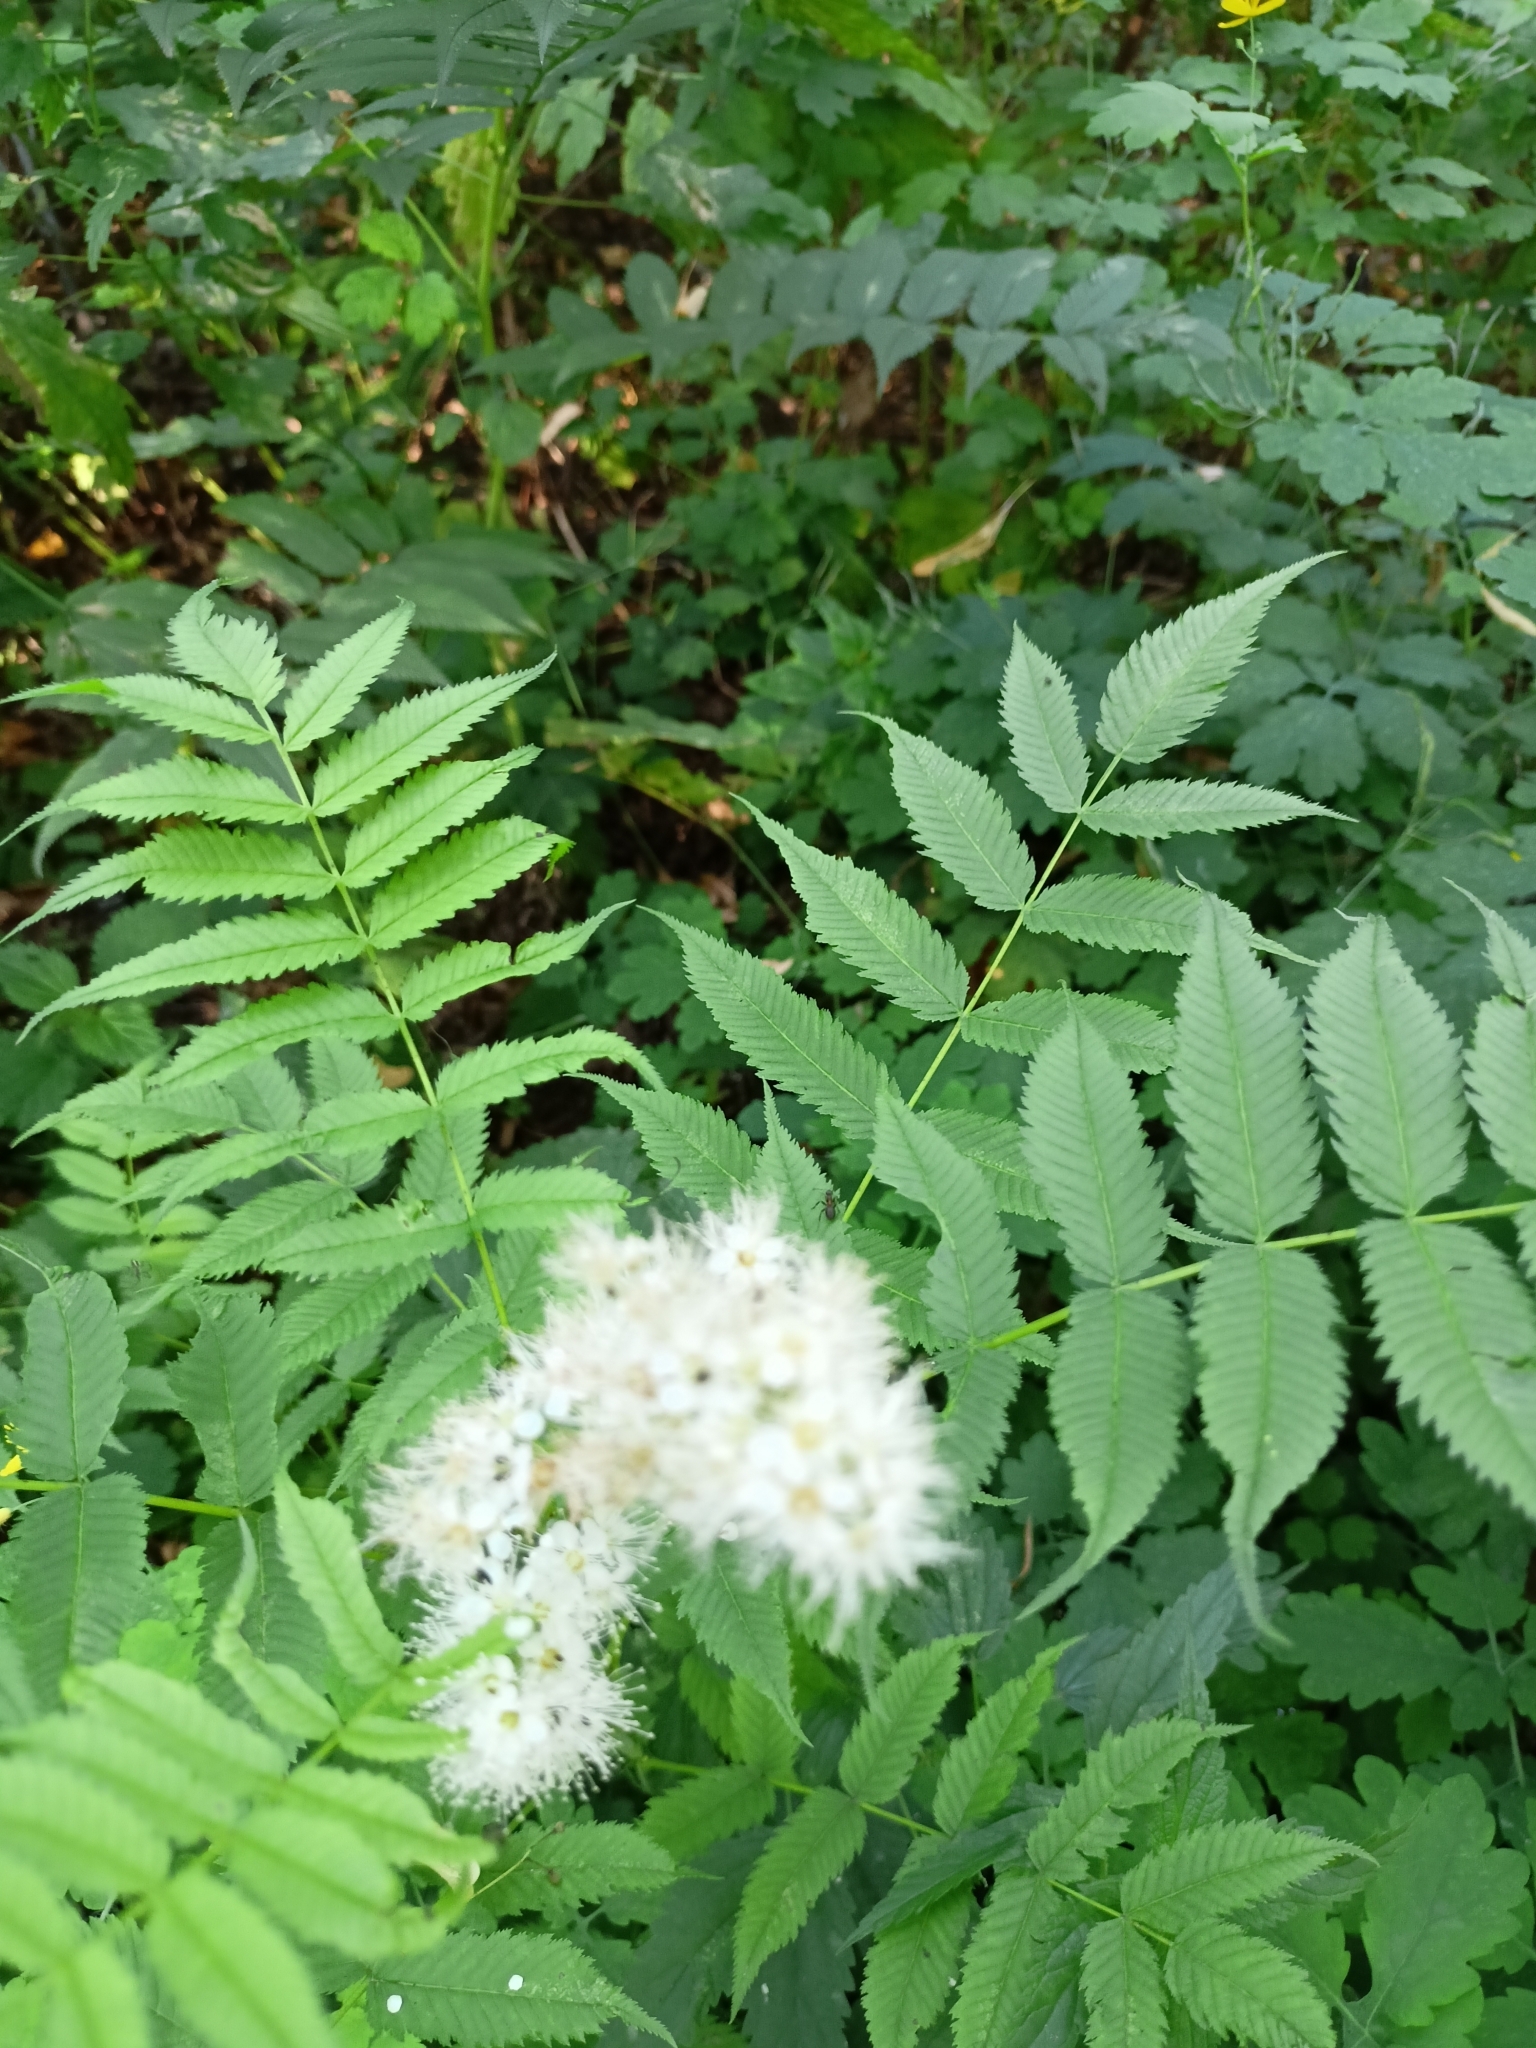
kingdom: Plantae
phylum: Tracheophyta
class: Magnoliopsida
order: Rosales
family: Rosaceae
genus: Sorbaria
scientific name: Sorbaria sorbifolia
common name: False spiraea
